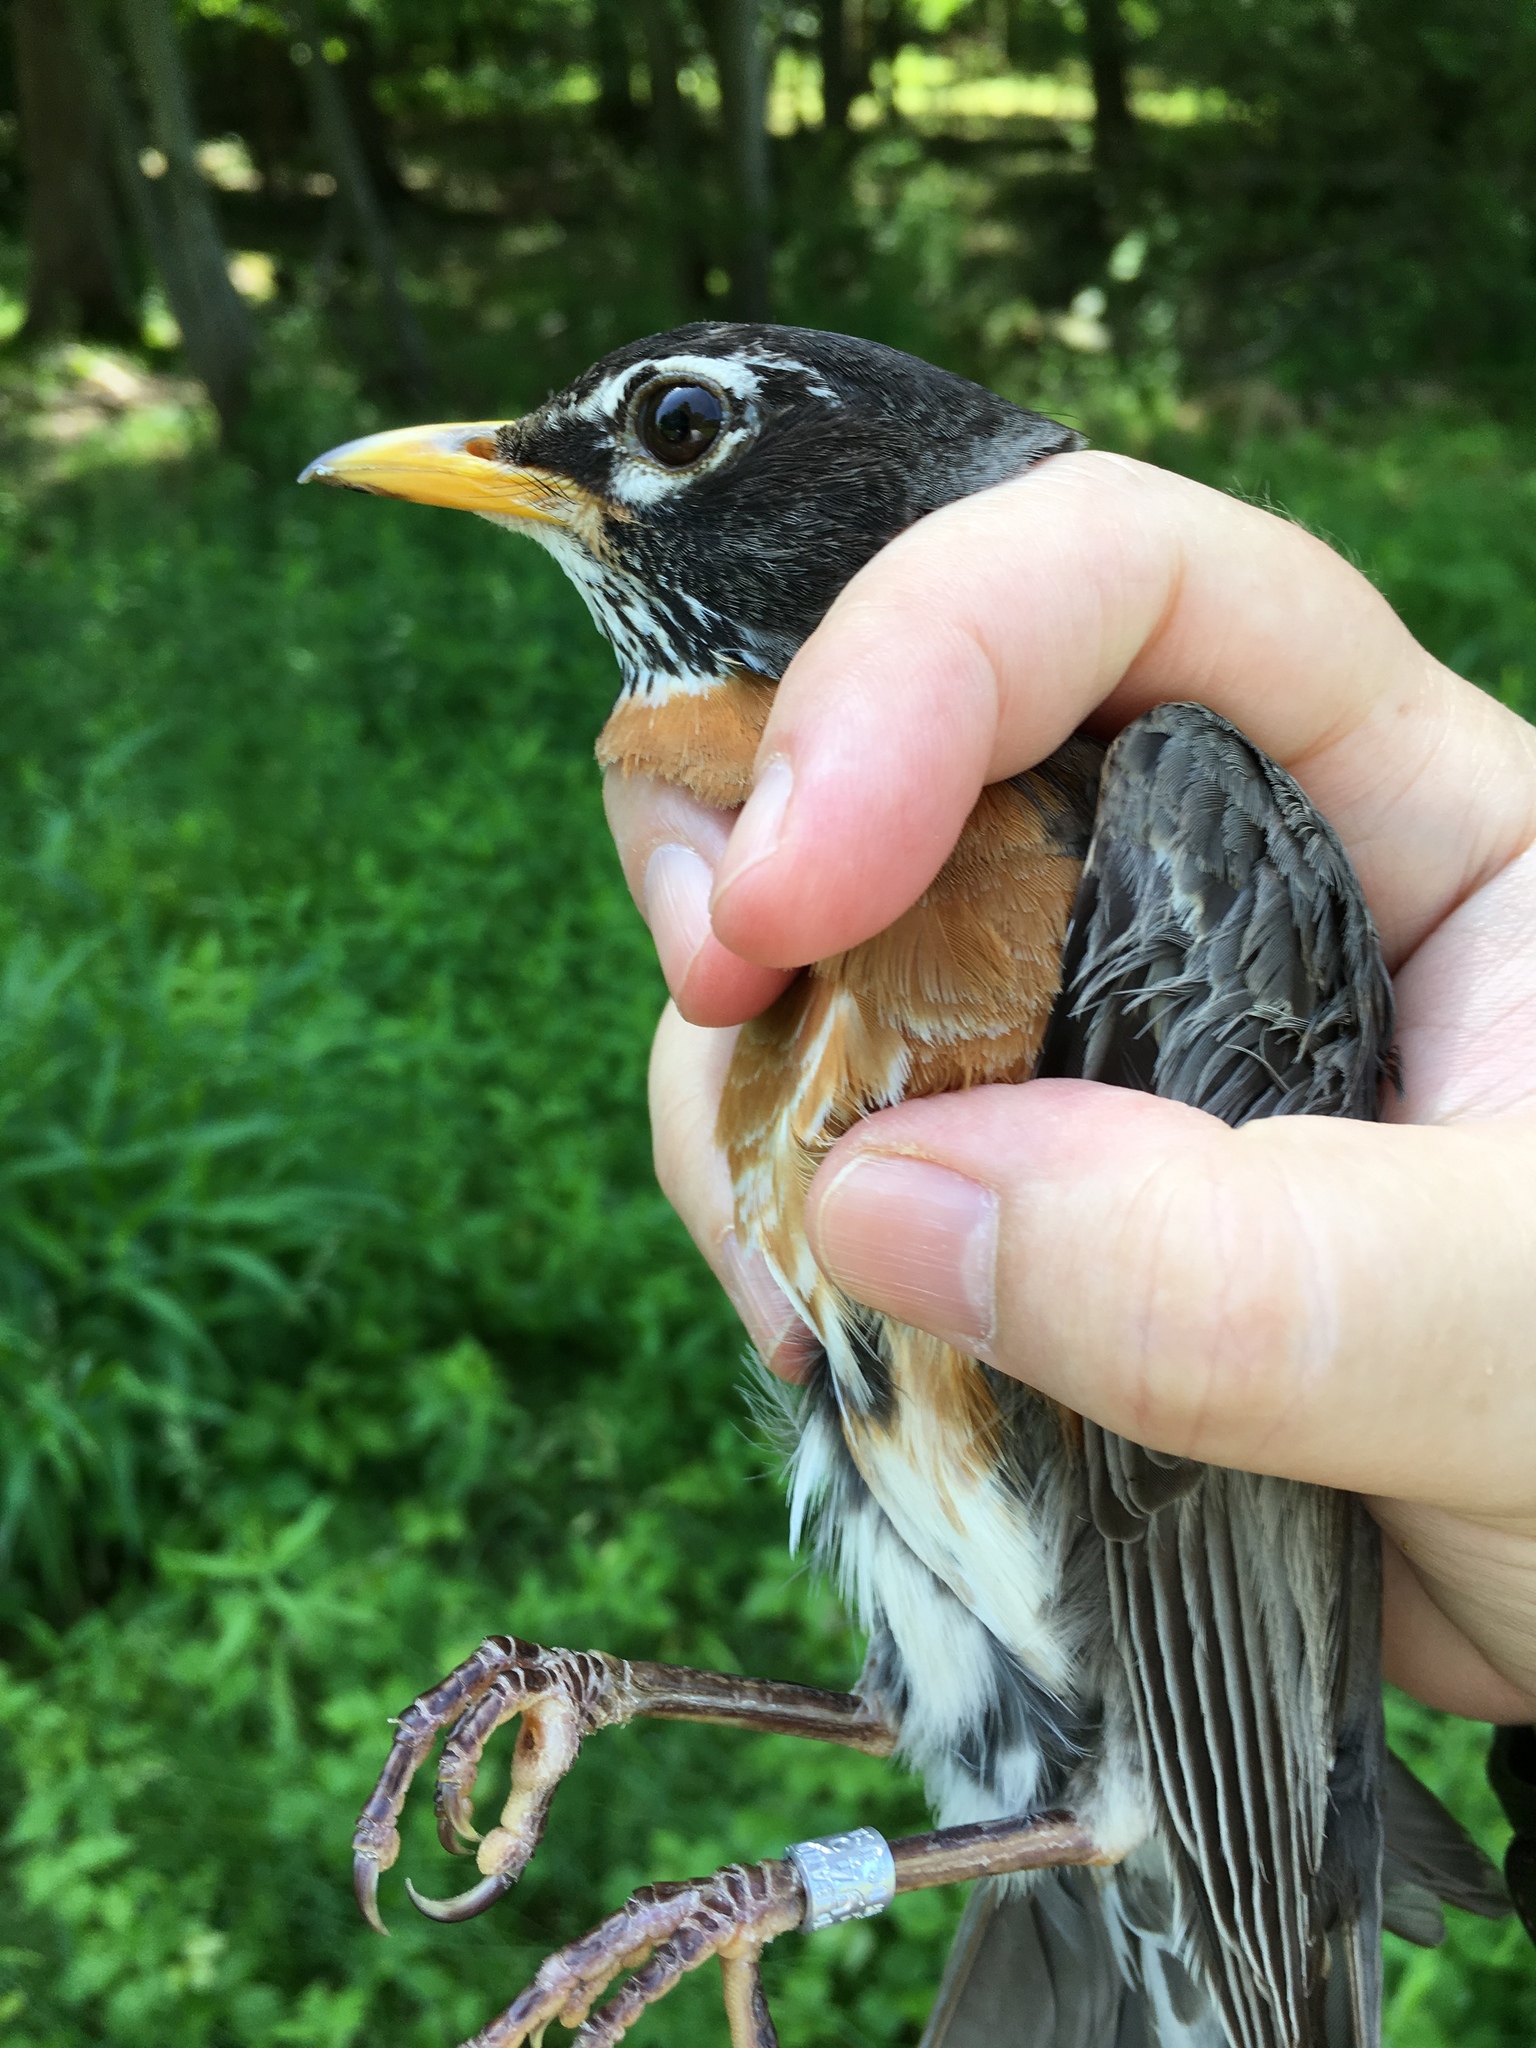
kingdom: Animalia
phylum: Chordata
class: Aves
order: Passeriformes
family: Turdidae
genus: Turdus
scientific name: Turdus migratorius
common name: American robin
